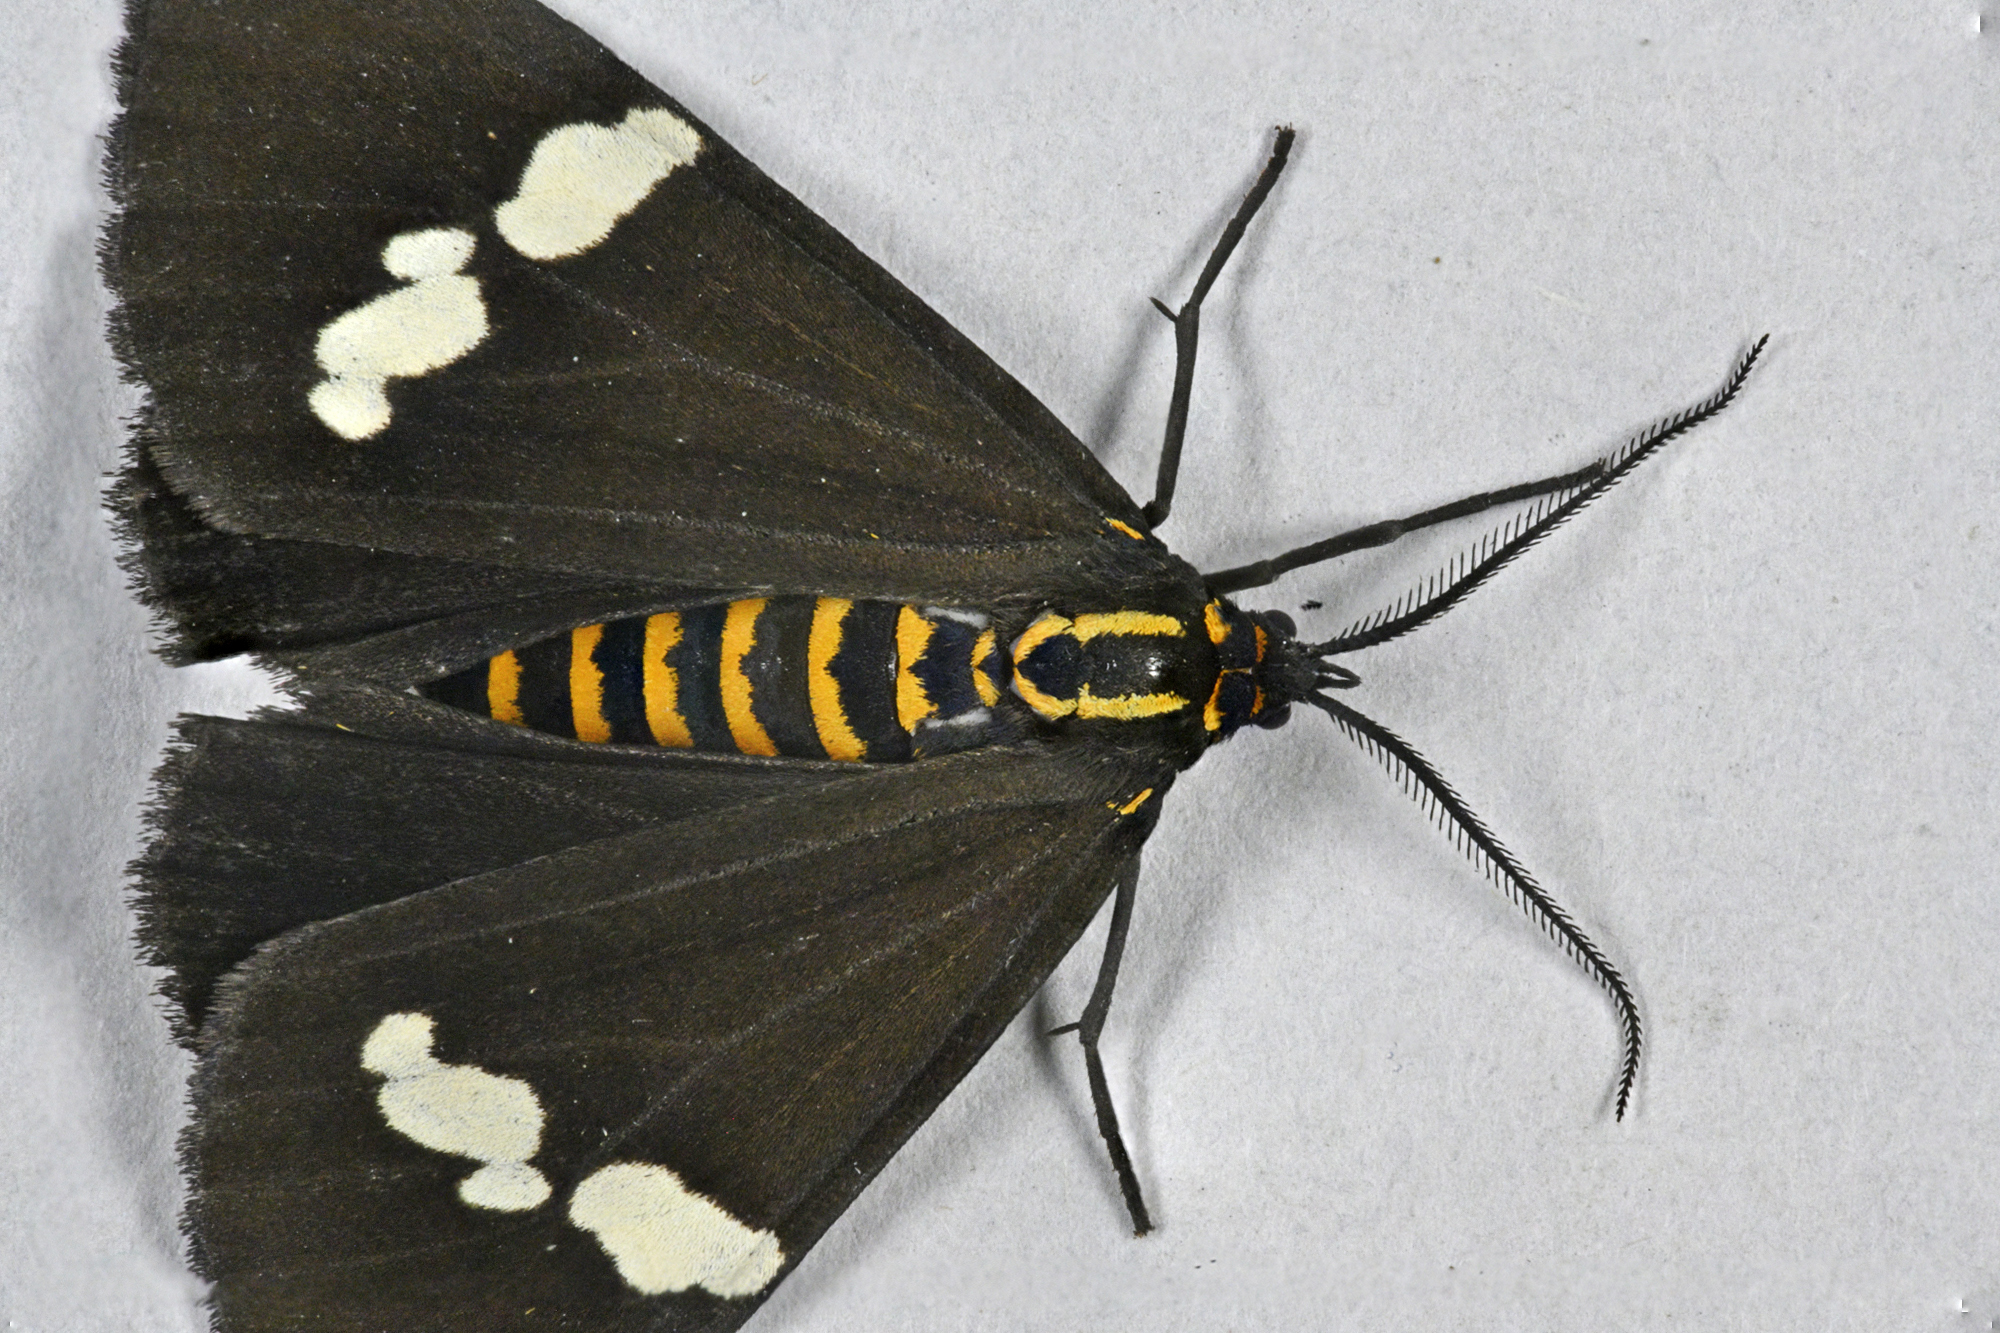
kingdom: Animalia
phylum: Arthropoda
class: Insecta
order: Lepidoptera
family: Erebidae
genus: Nyctemera
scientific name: Nyctemera annulatum
